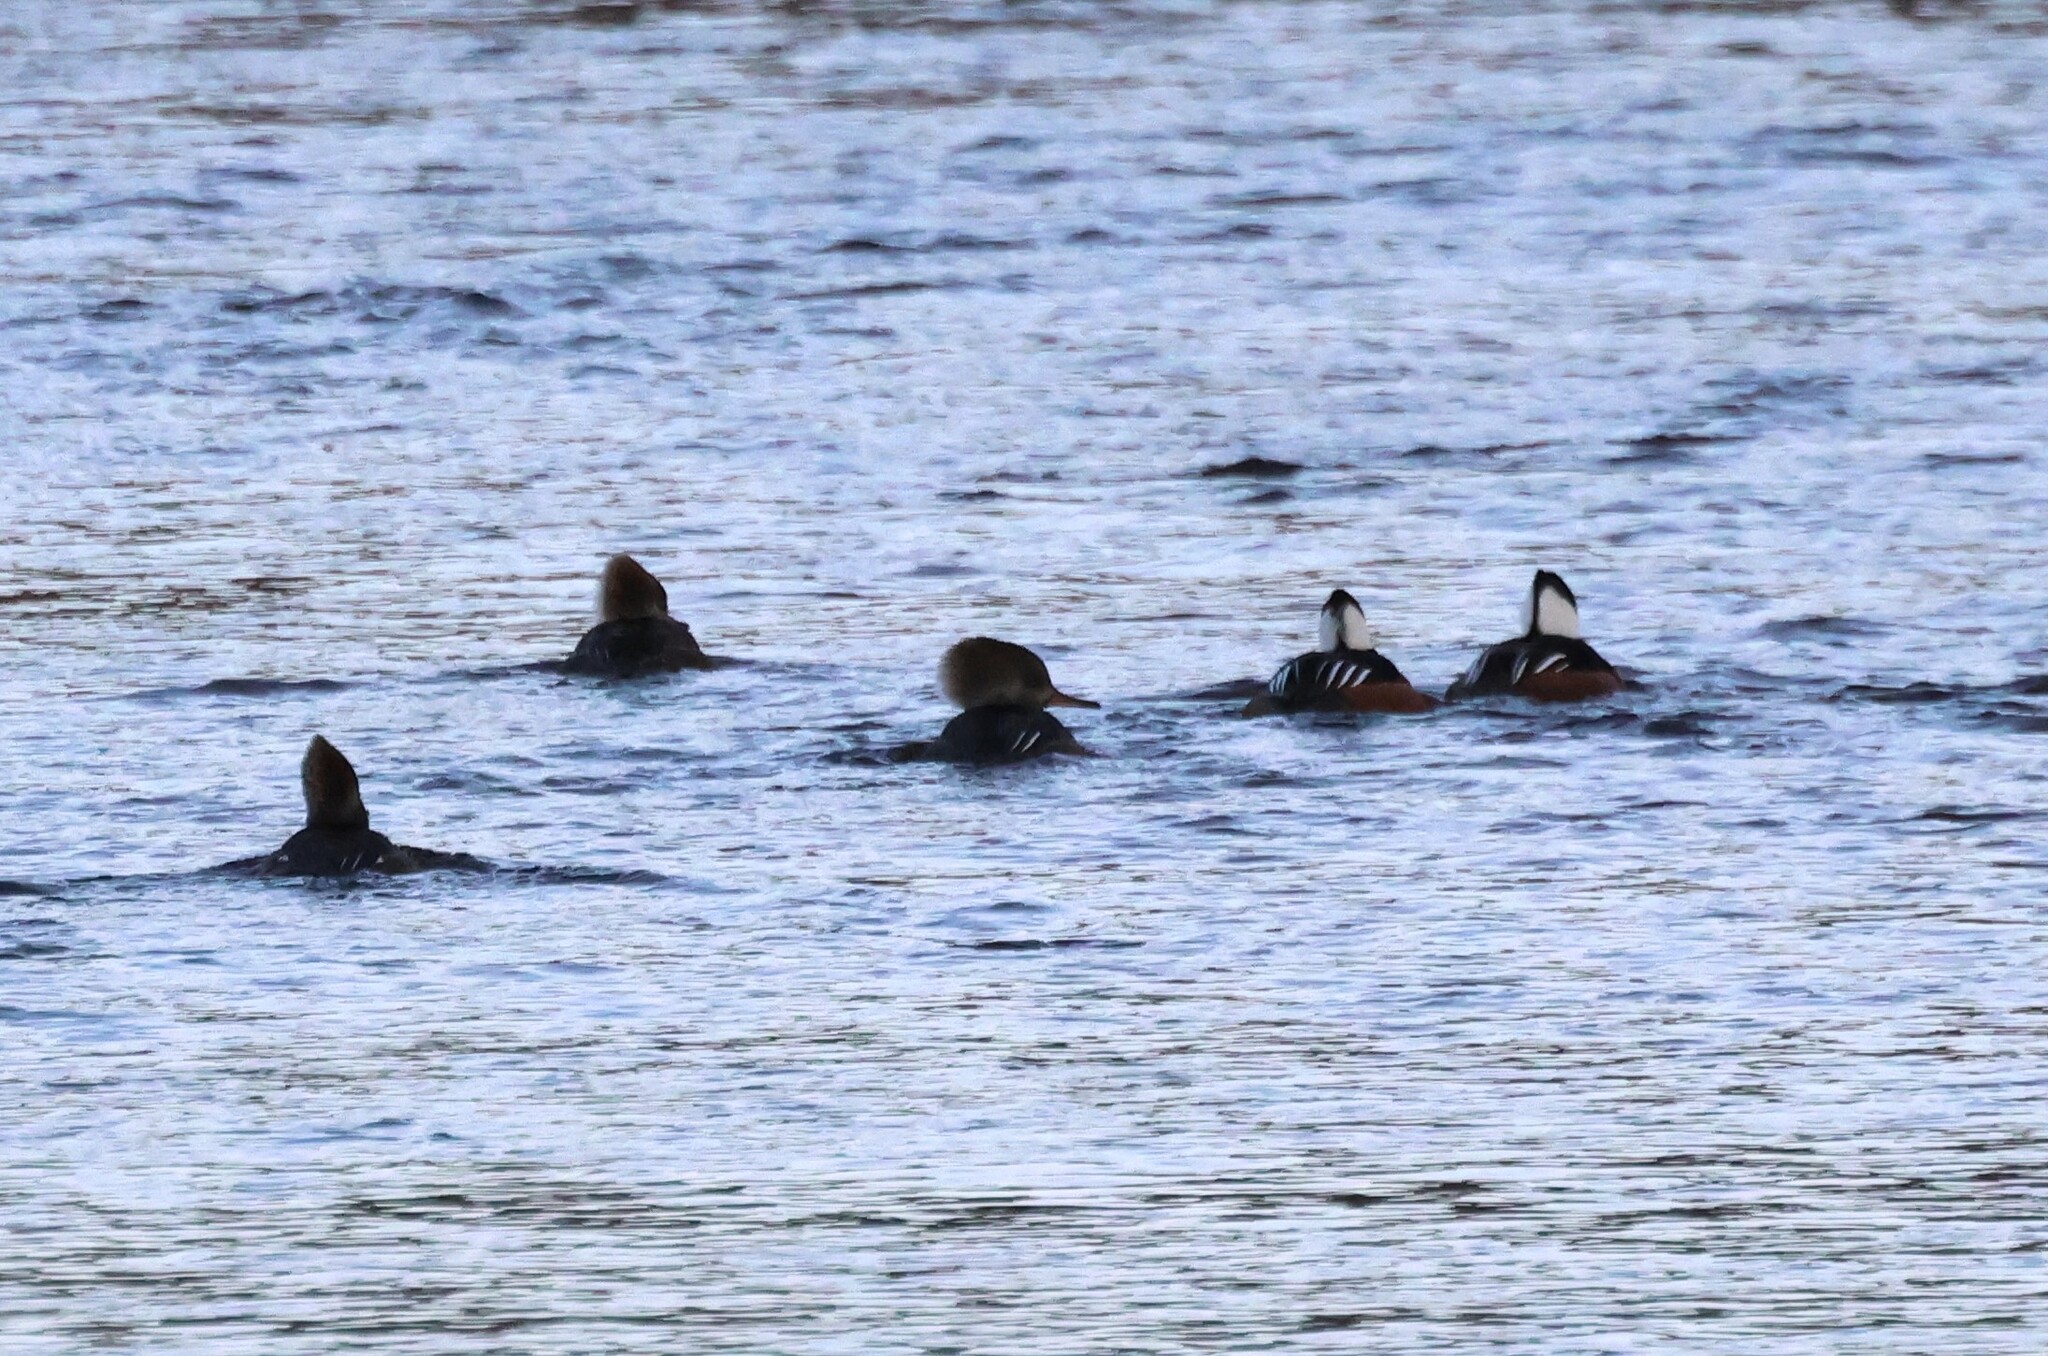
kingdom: Animalia
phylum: Chordata
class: Aves
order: Anseriformes
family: Anatidae
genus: Lophodytes
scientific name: Lophodytes cucullatus
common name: Hooded merganser
